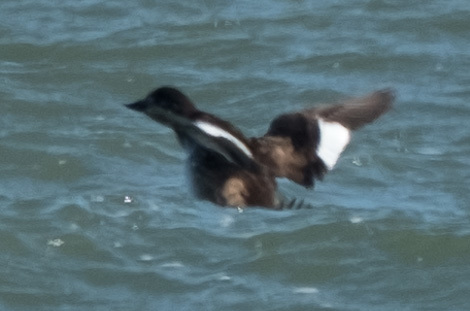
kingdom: Animalia
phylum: Chordata
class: Aves
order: Anseriformes
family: Anatidae
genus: Melanitta
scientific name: Melanitta deglandi
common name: White-winged scoter
